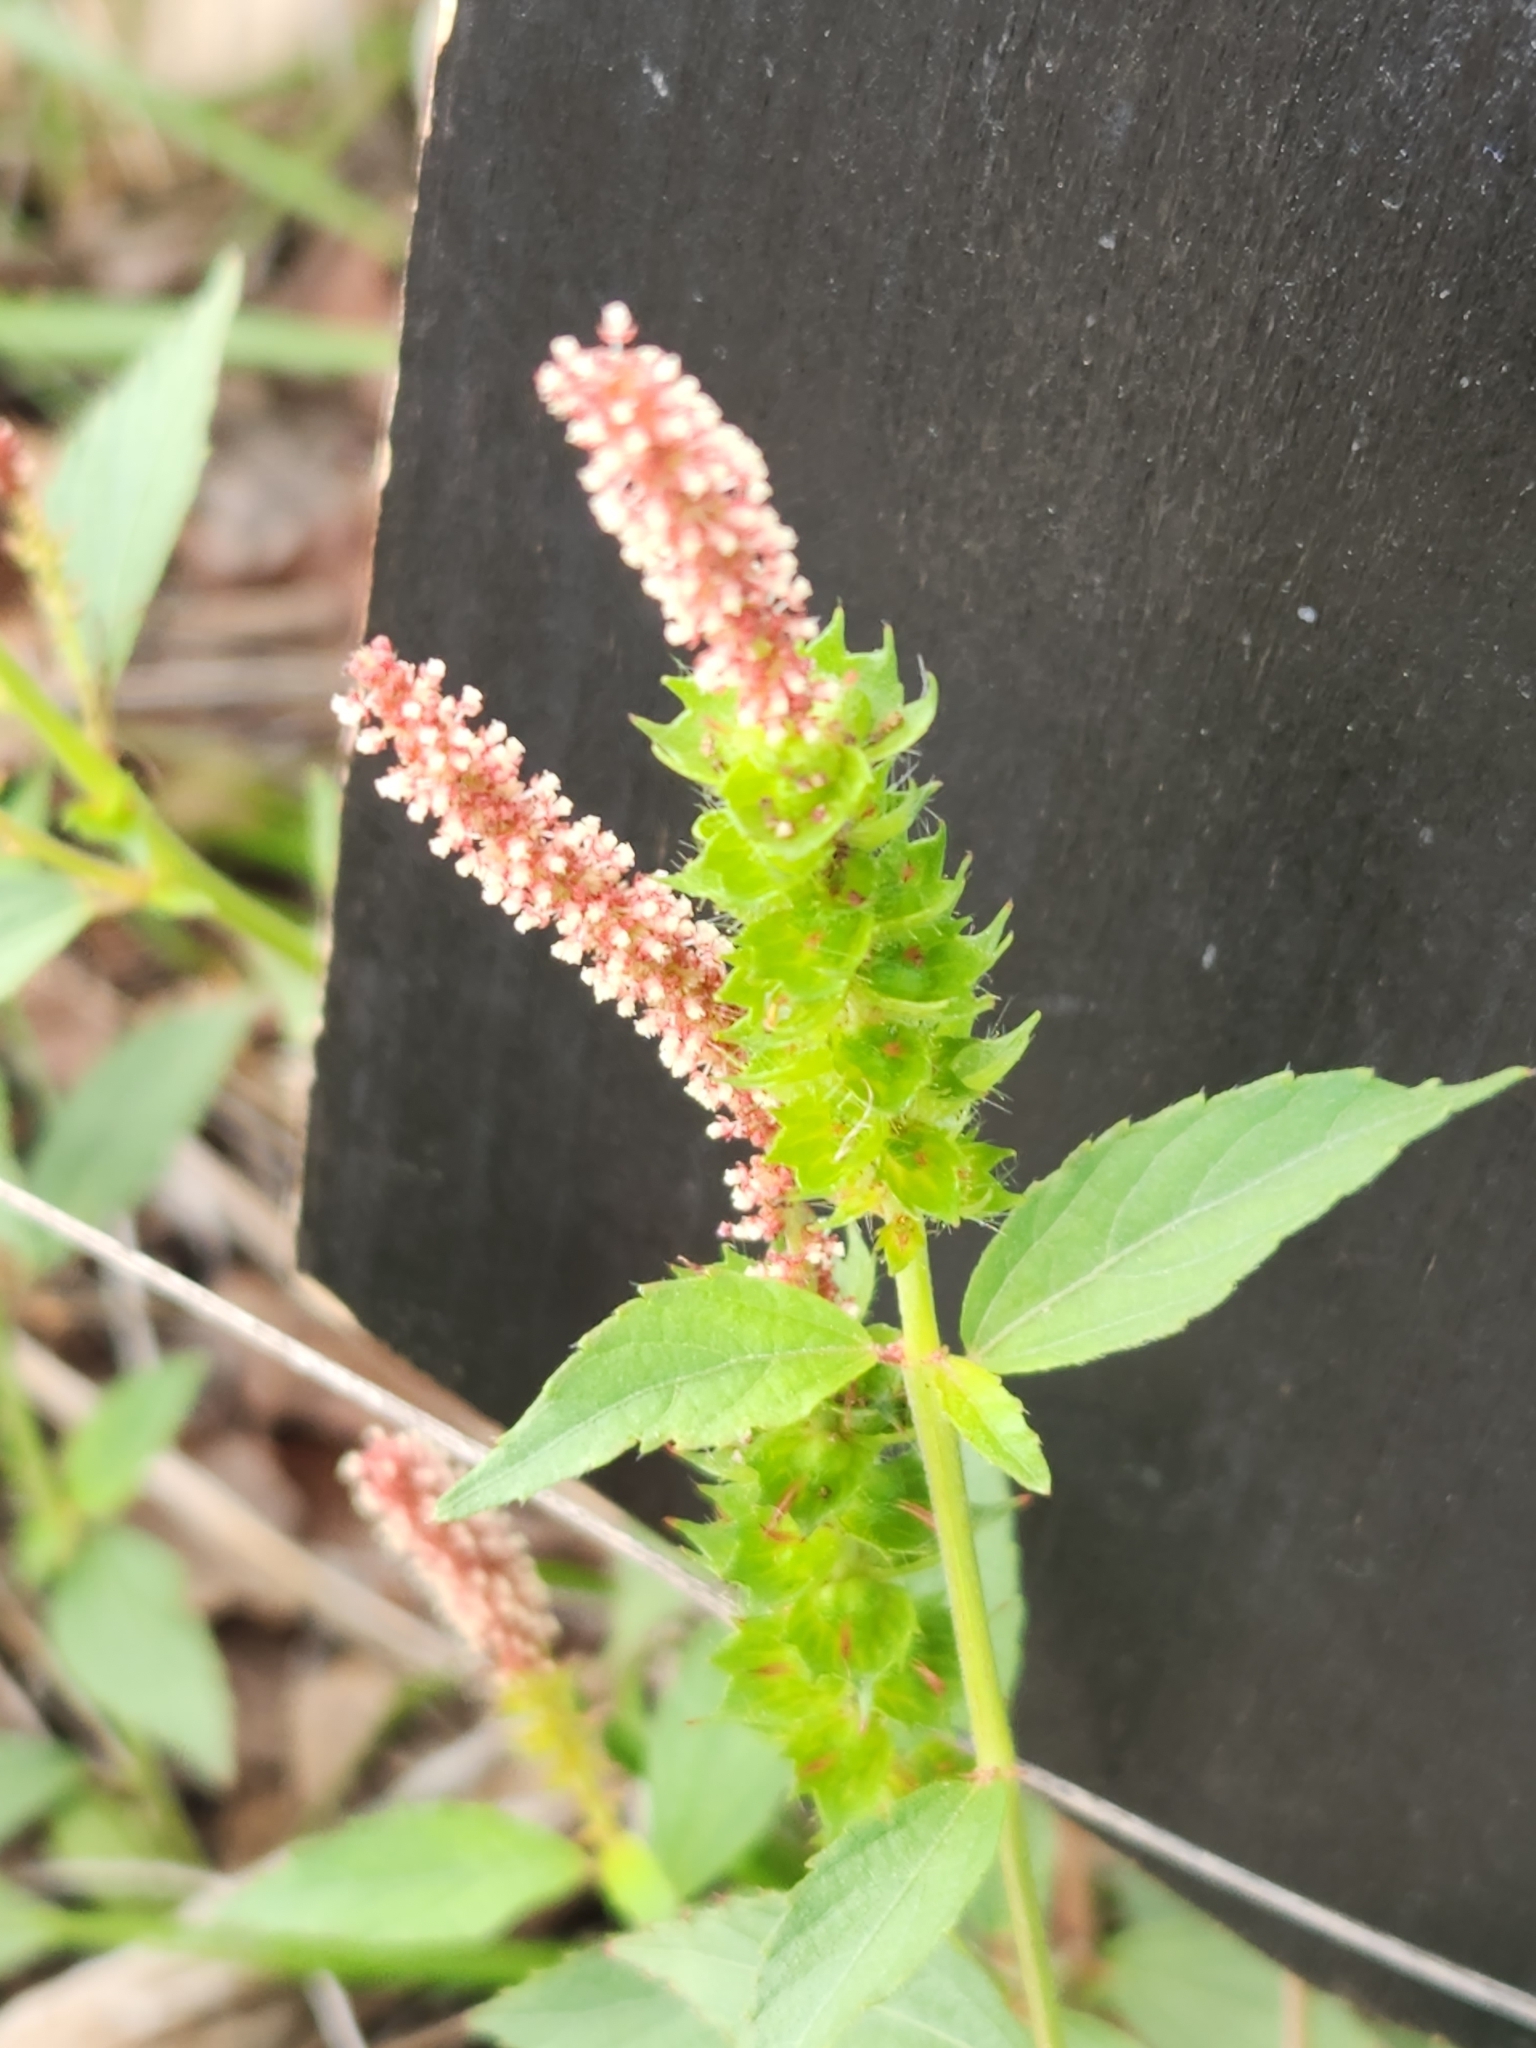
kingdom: Plantae
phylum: Tracheophyta
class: Magnoliopsida
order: Malpighiales
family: Euphorbiaceae
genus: Acalypha
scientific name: Acalypha phleoides
